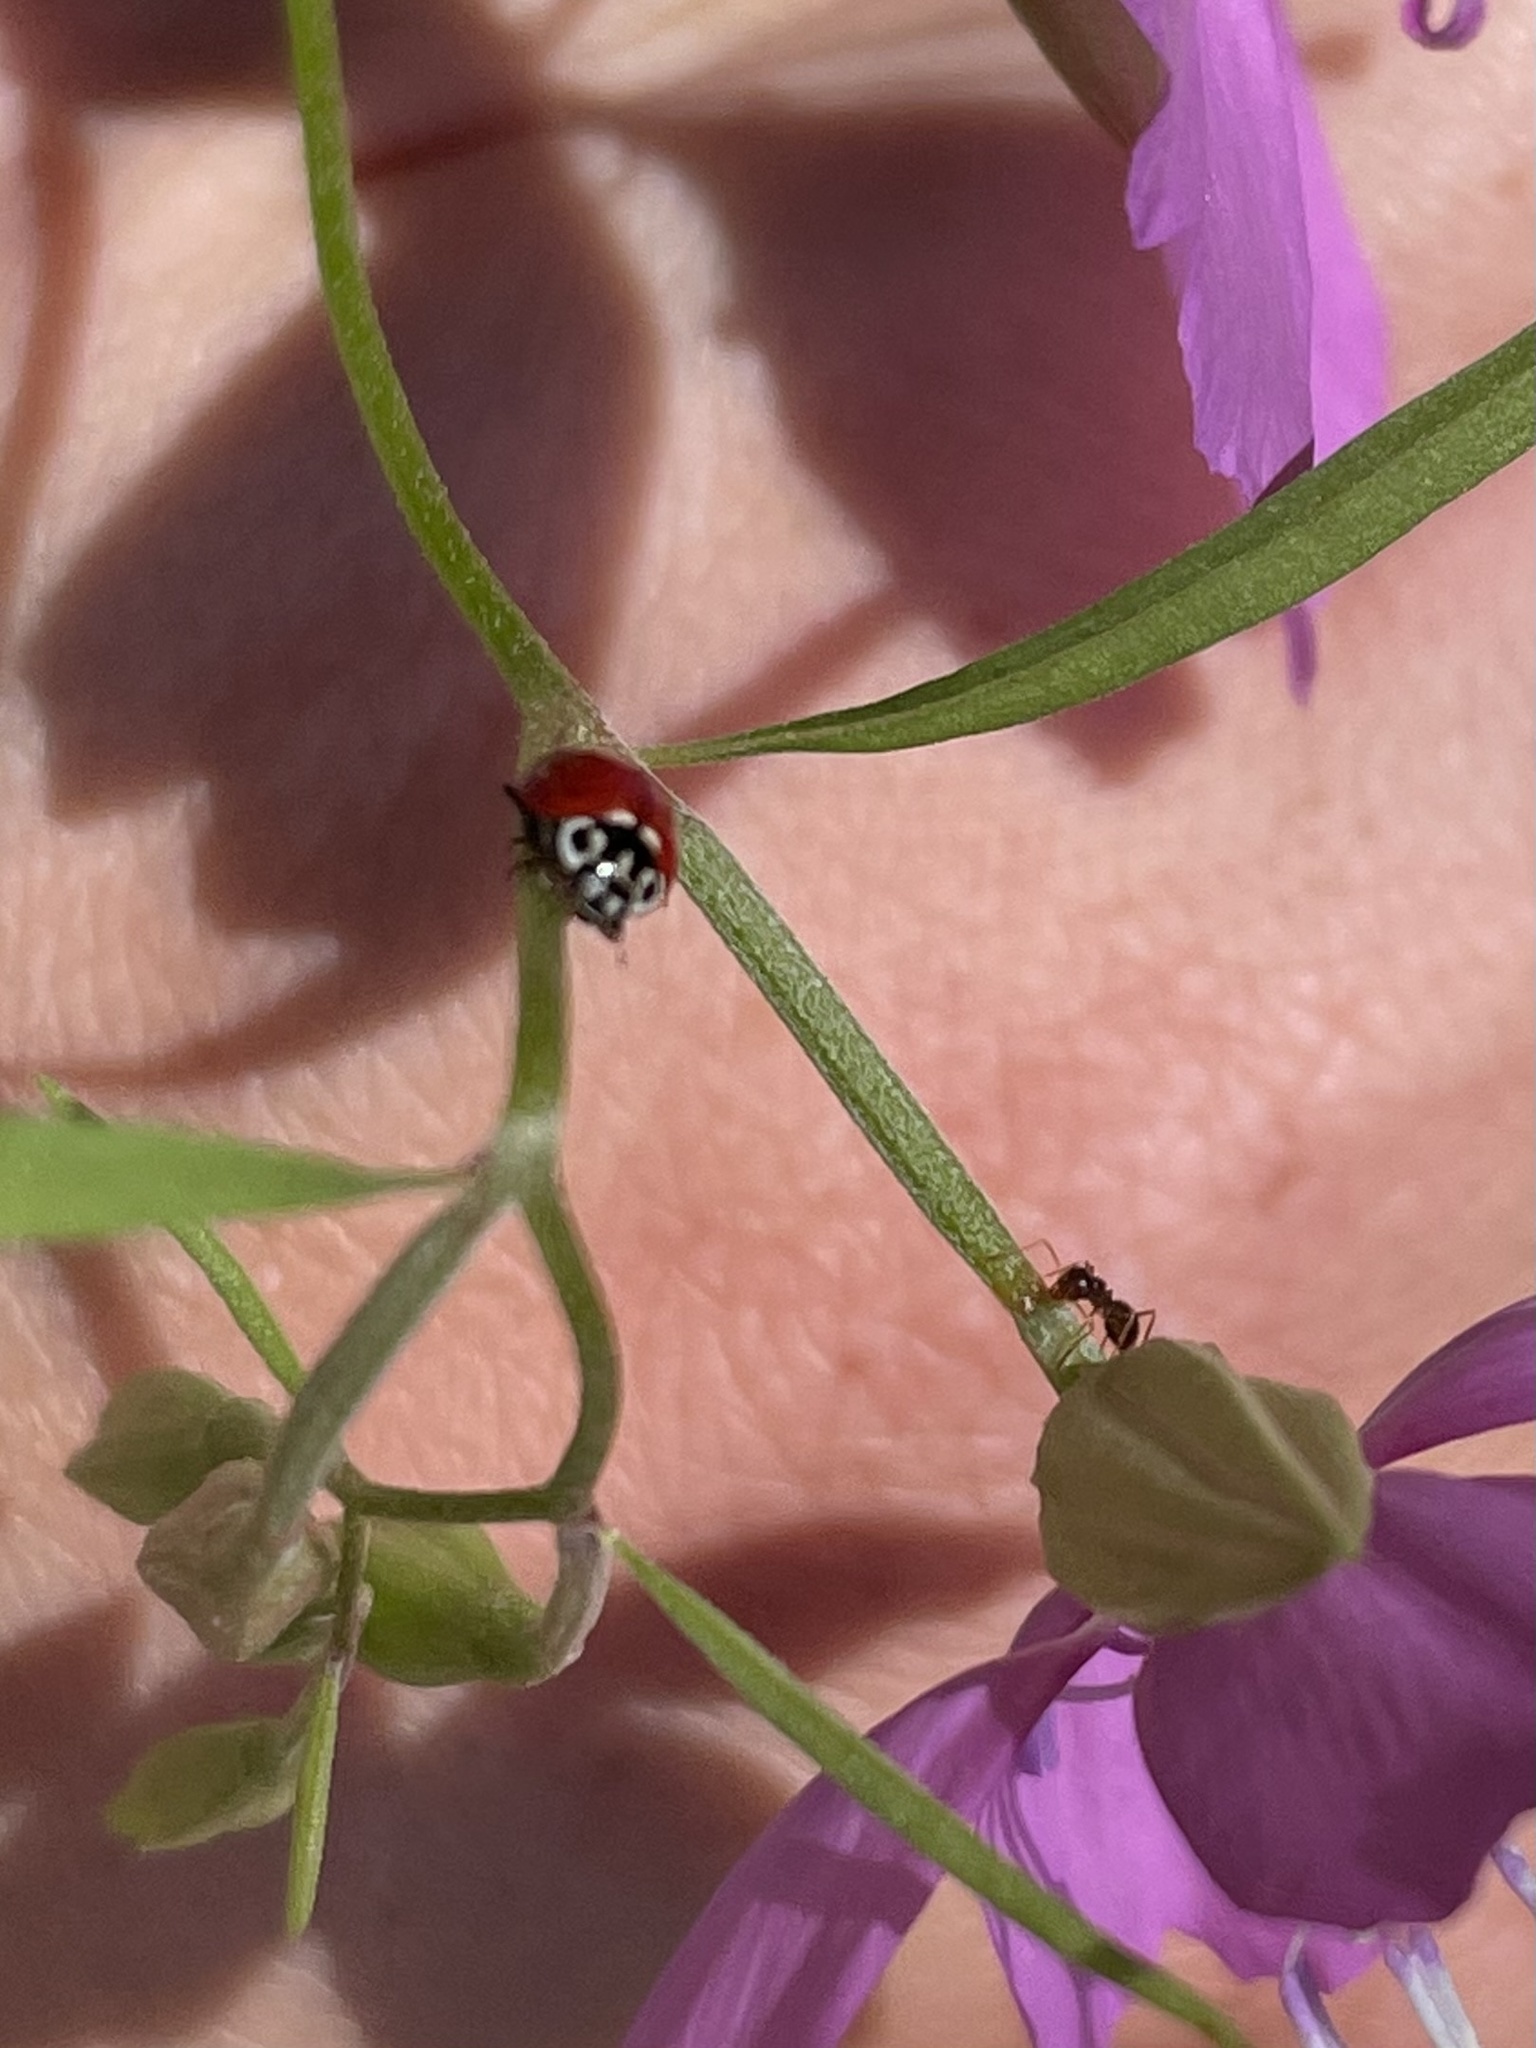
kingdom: Animalia
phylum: Arthropoda
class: Insecta
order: Coleoptera
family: Coccinellidae
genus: Cycloneda
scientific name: Cycloneda polita
